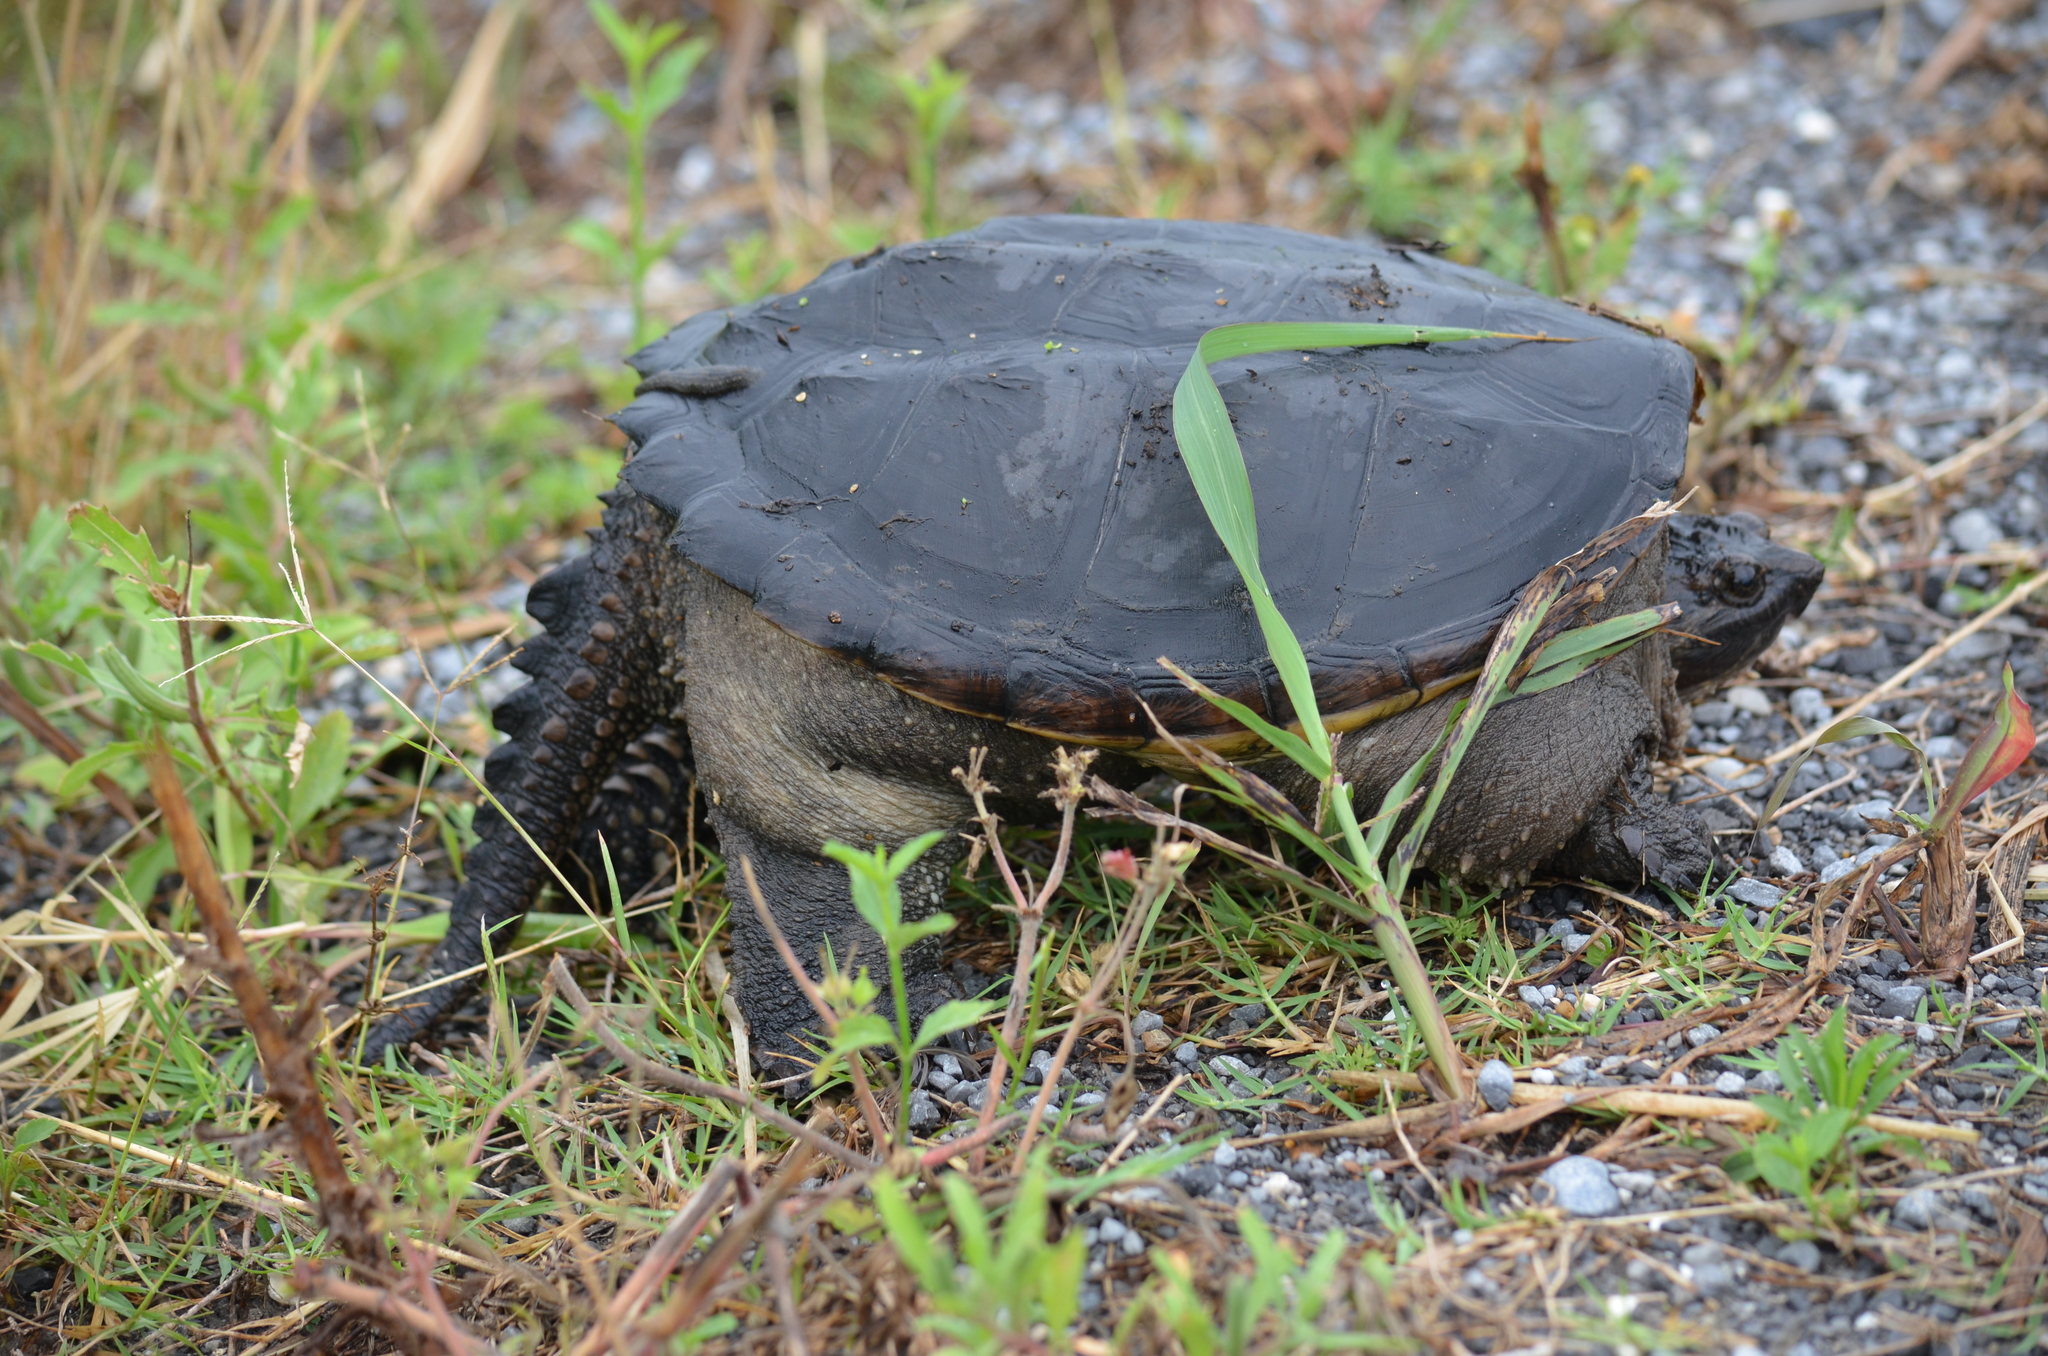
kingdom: Animalia
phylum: Chordata
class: Testudines
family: Chelydridae
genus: Chelydra
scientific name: Chelydra serpentina
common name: Common snapping turtle
